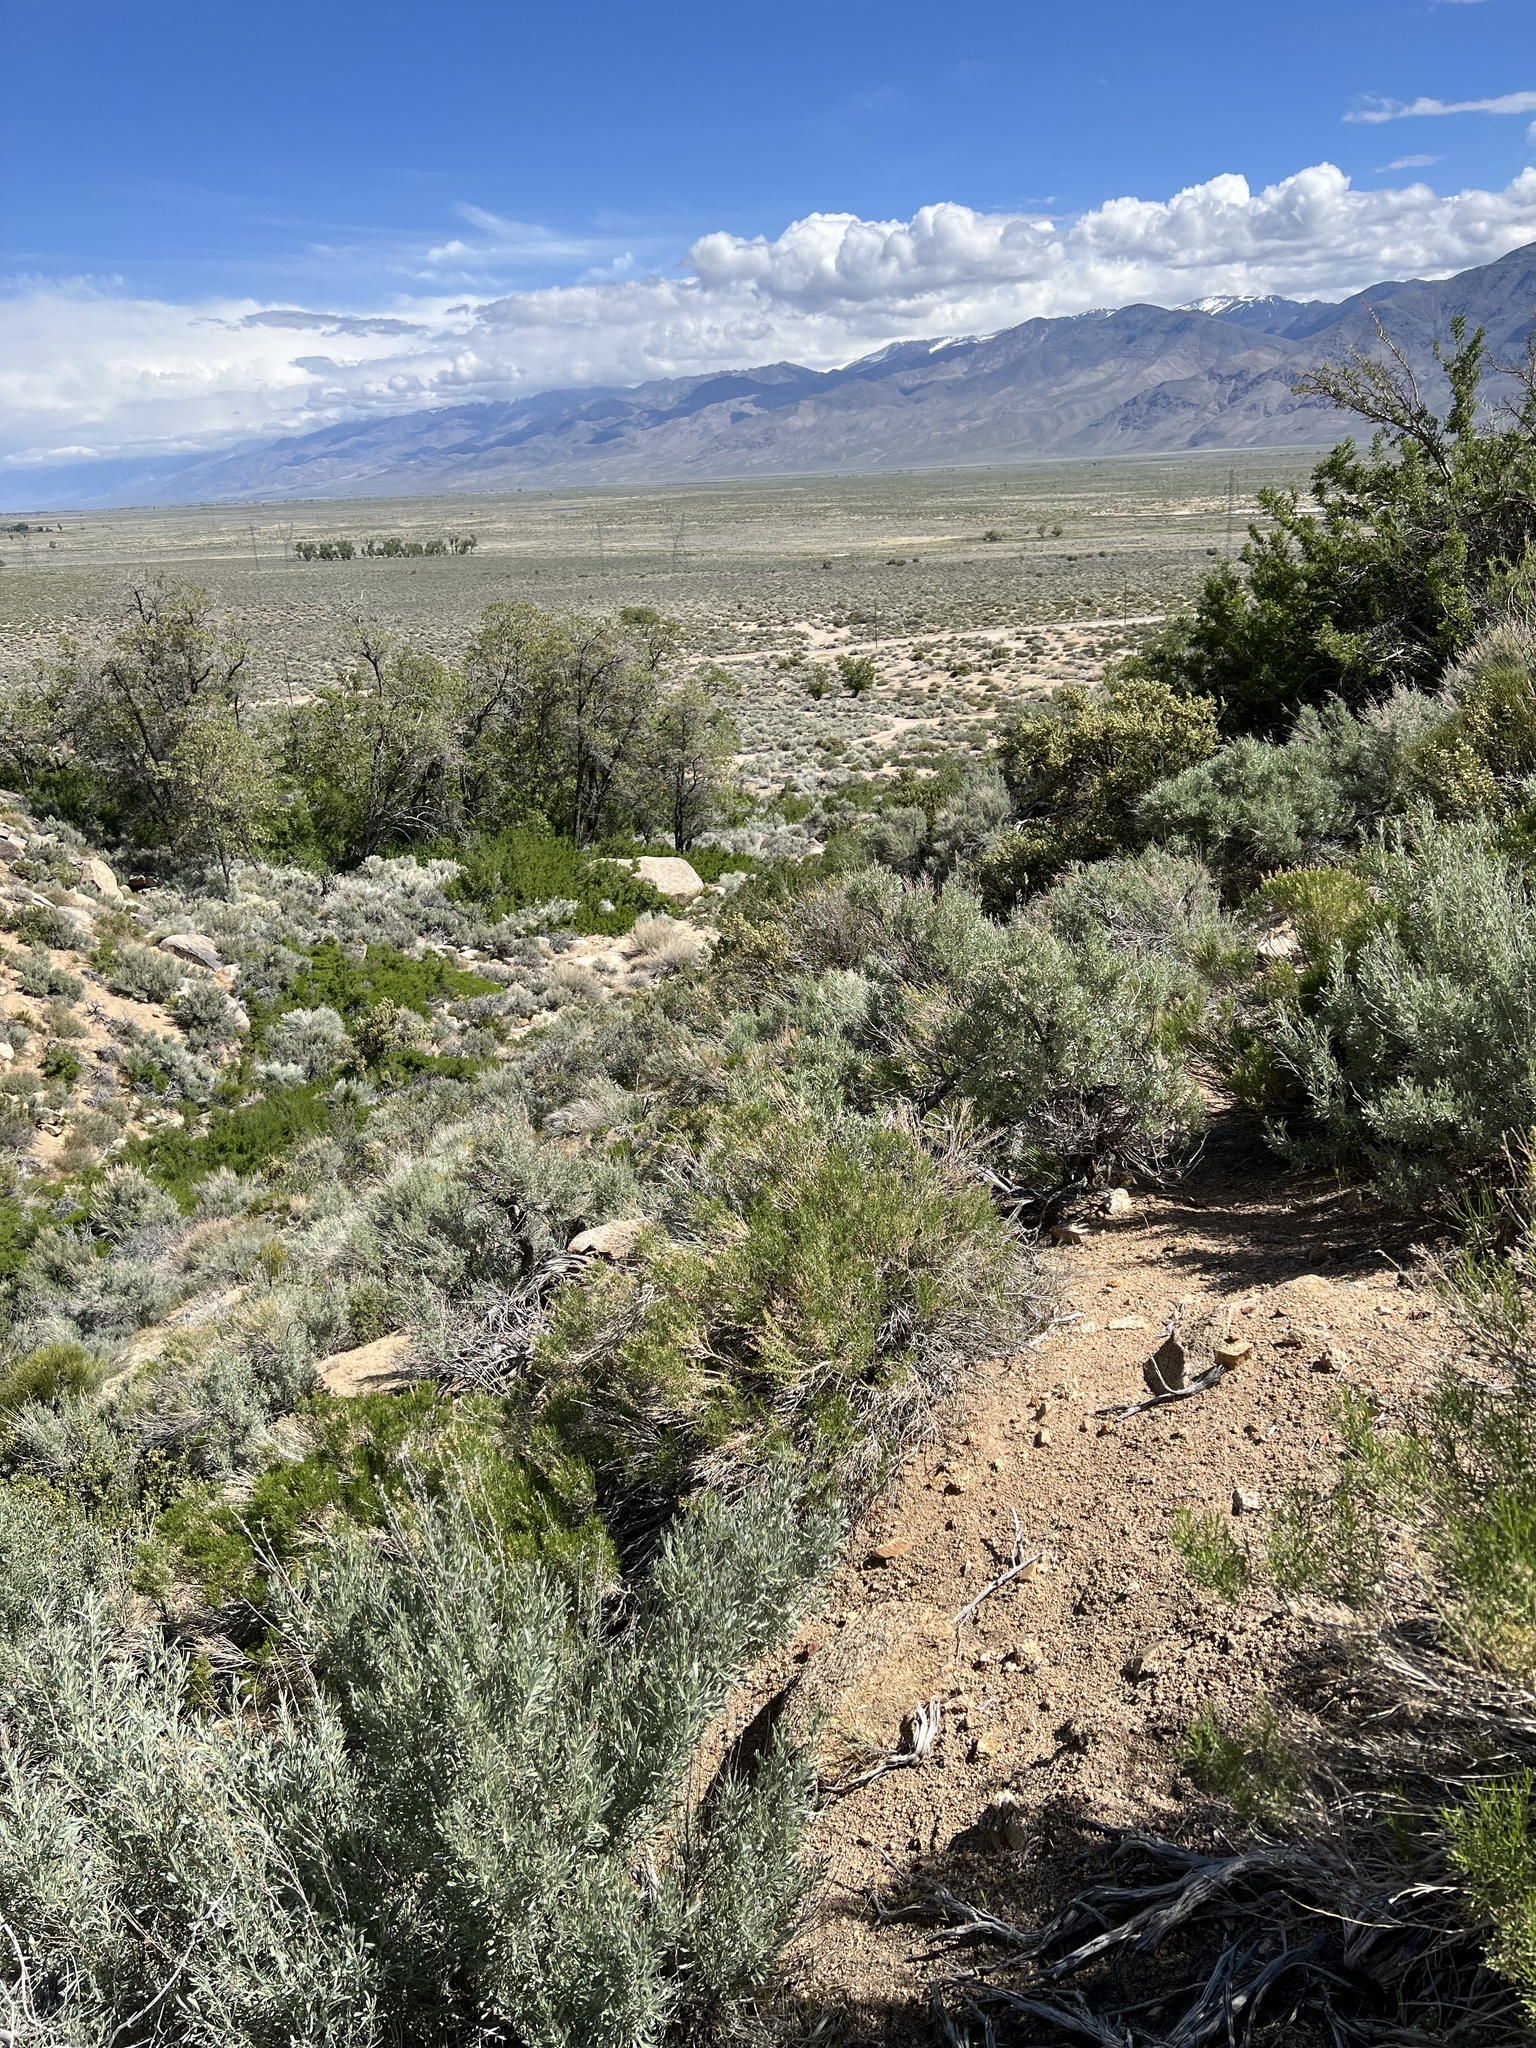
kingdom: Plantae
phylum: Tracheophyta
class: Magnoliopsida
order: Asterales
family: Asteraceae
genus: Artemisia
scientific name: Artemisia tridentata
